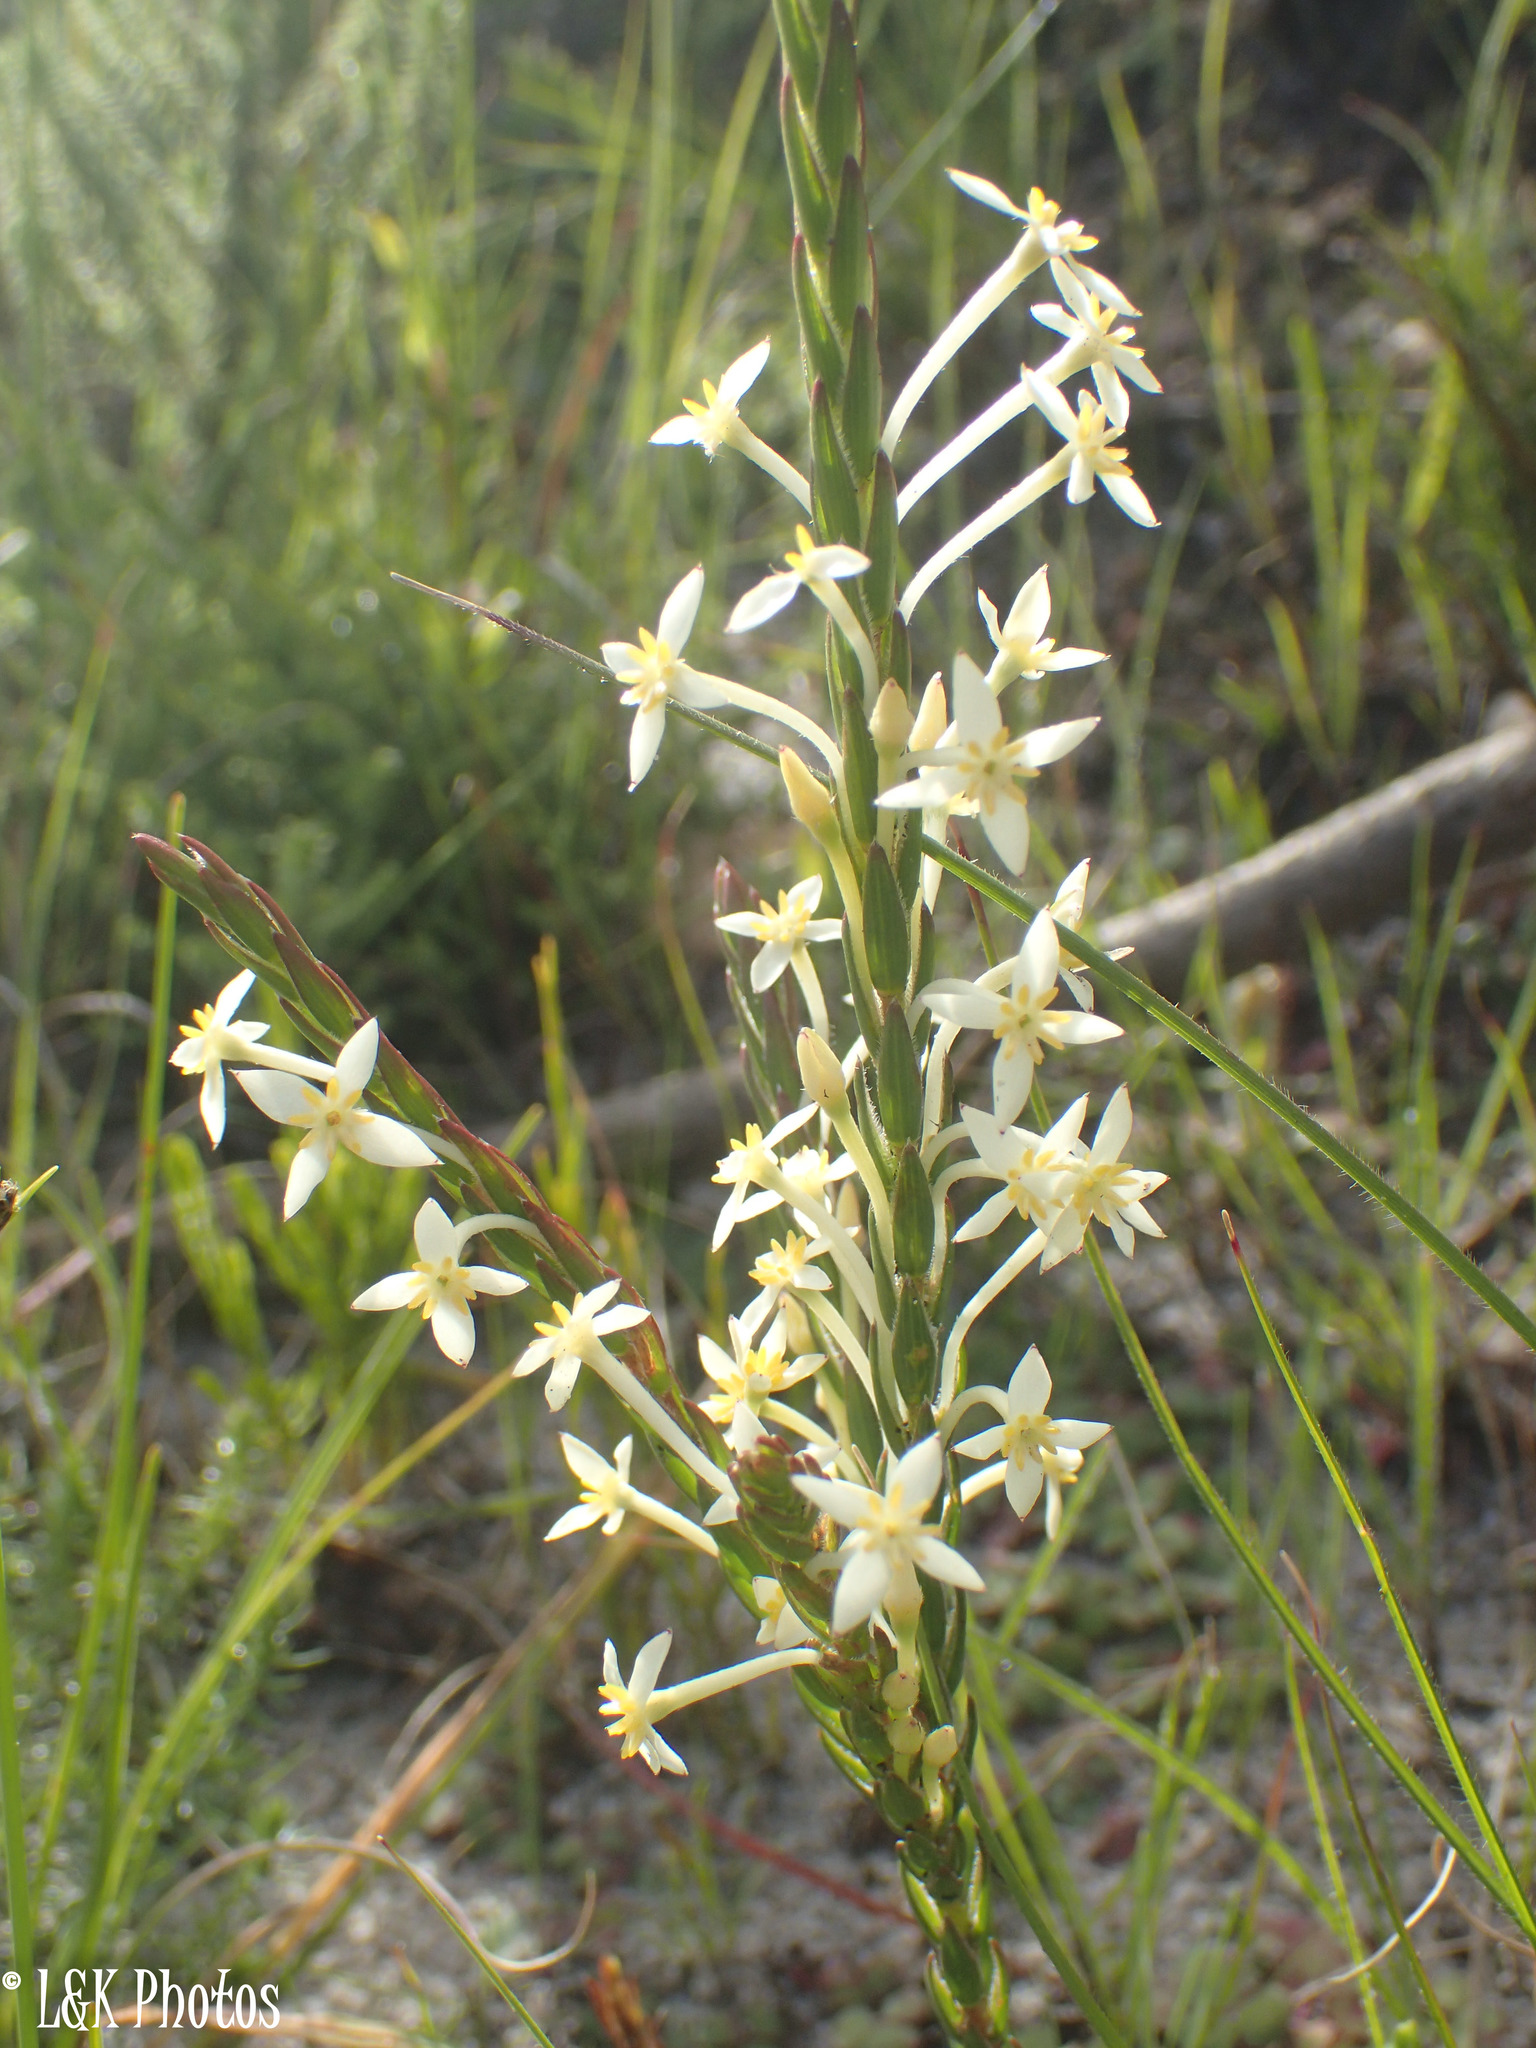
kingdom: Plantae
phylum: Tracheophyta
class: Magnoliopsida
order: Malvales
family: Thymelaeaceae
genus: Struthiola
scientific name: Struthiola ciliata
